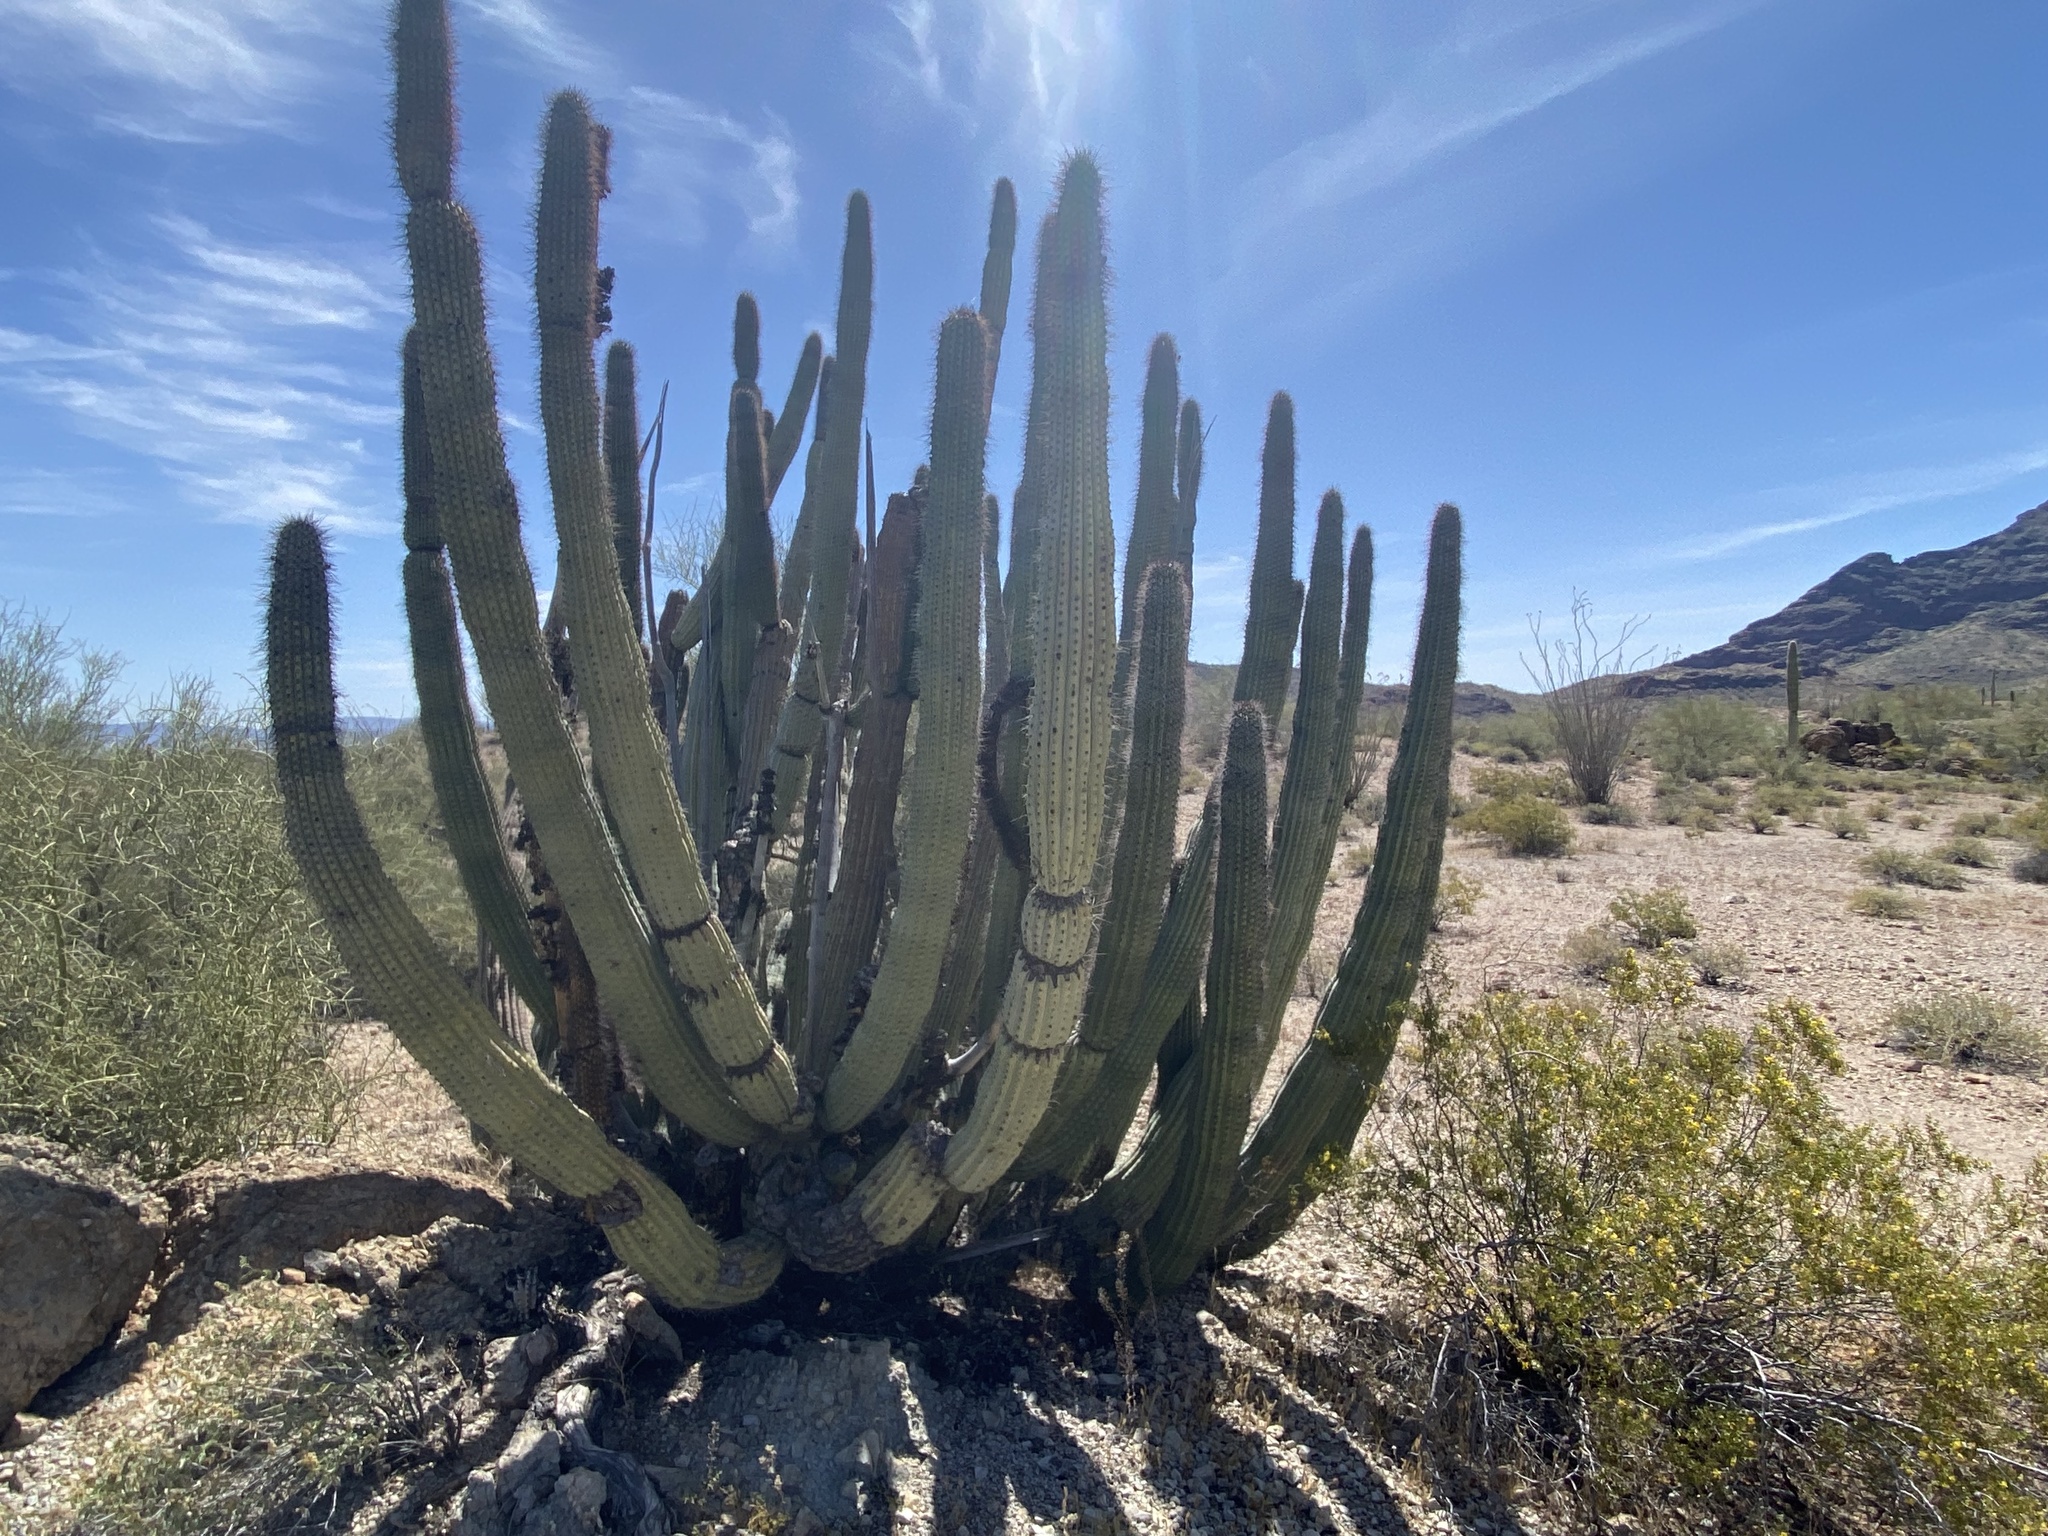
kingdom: Plantae
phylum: Tracheophyta
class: Magnoliopsida
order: Caryophyllales
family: Cactaceae
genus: Stenocereus
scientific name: Stenocereus thurberi
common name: Organ pipe cactus
